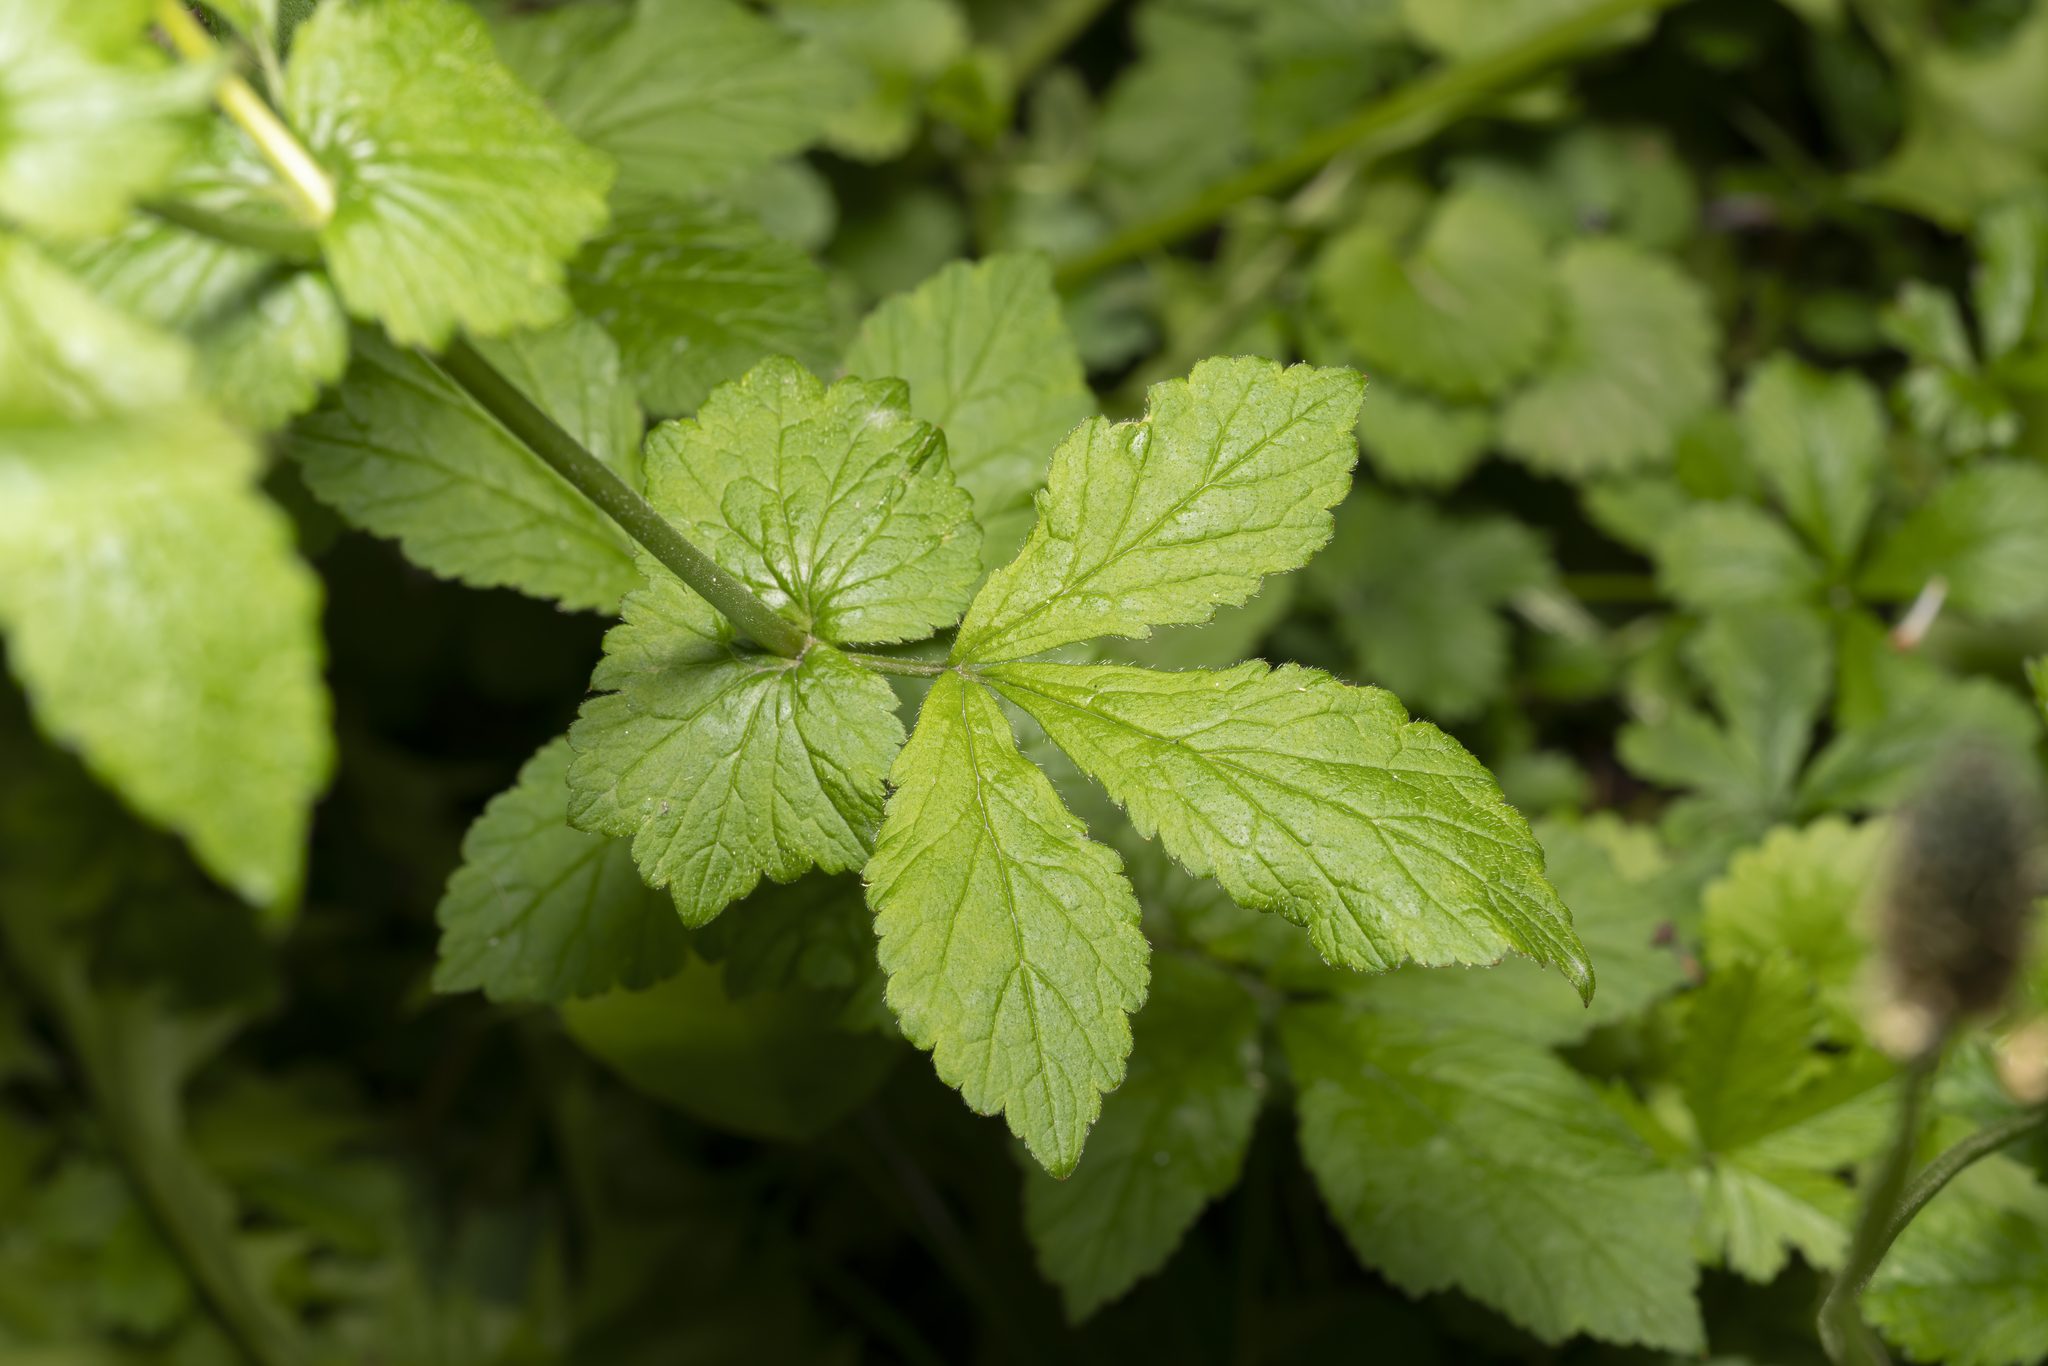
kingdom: Plantae
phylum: Tracheophyta
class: Magnoliopsida
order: Rosales
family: Rosaceae
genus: Geum
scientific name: Geum urbanum
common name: Wood avens
